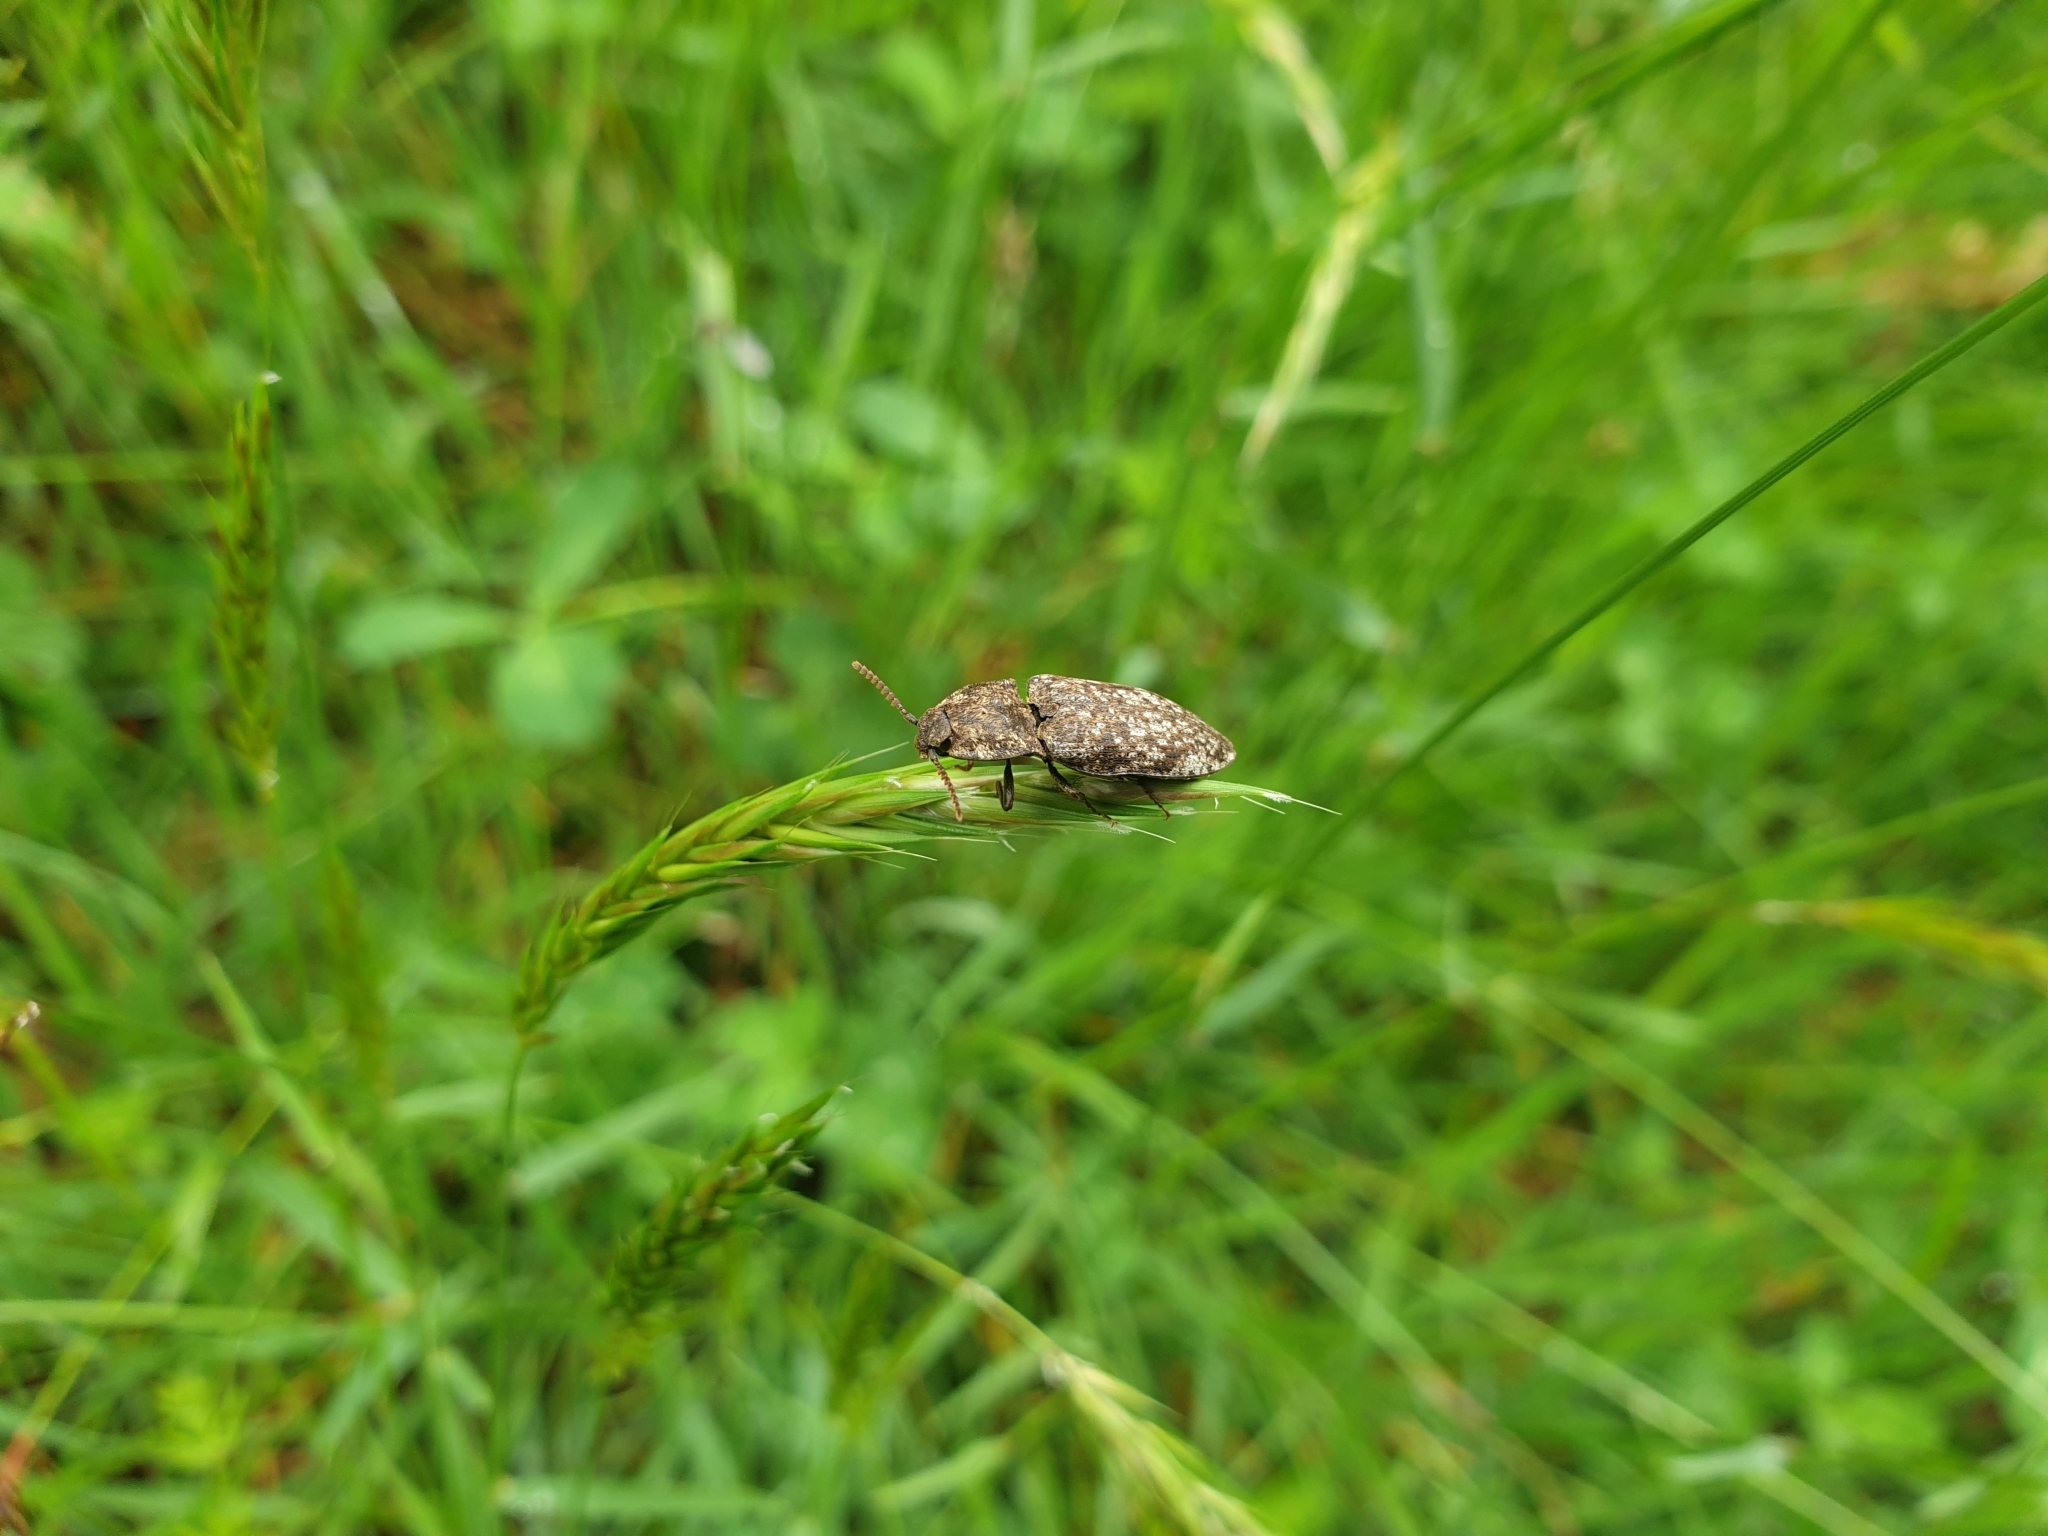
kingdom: Animalia
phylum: Arthropoda
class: Insecta
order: Coleoptera
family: Elateridae
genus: Agrypnus
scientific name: Agrypnus murinus
